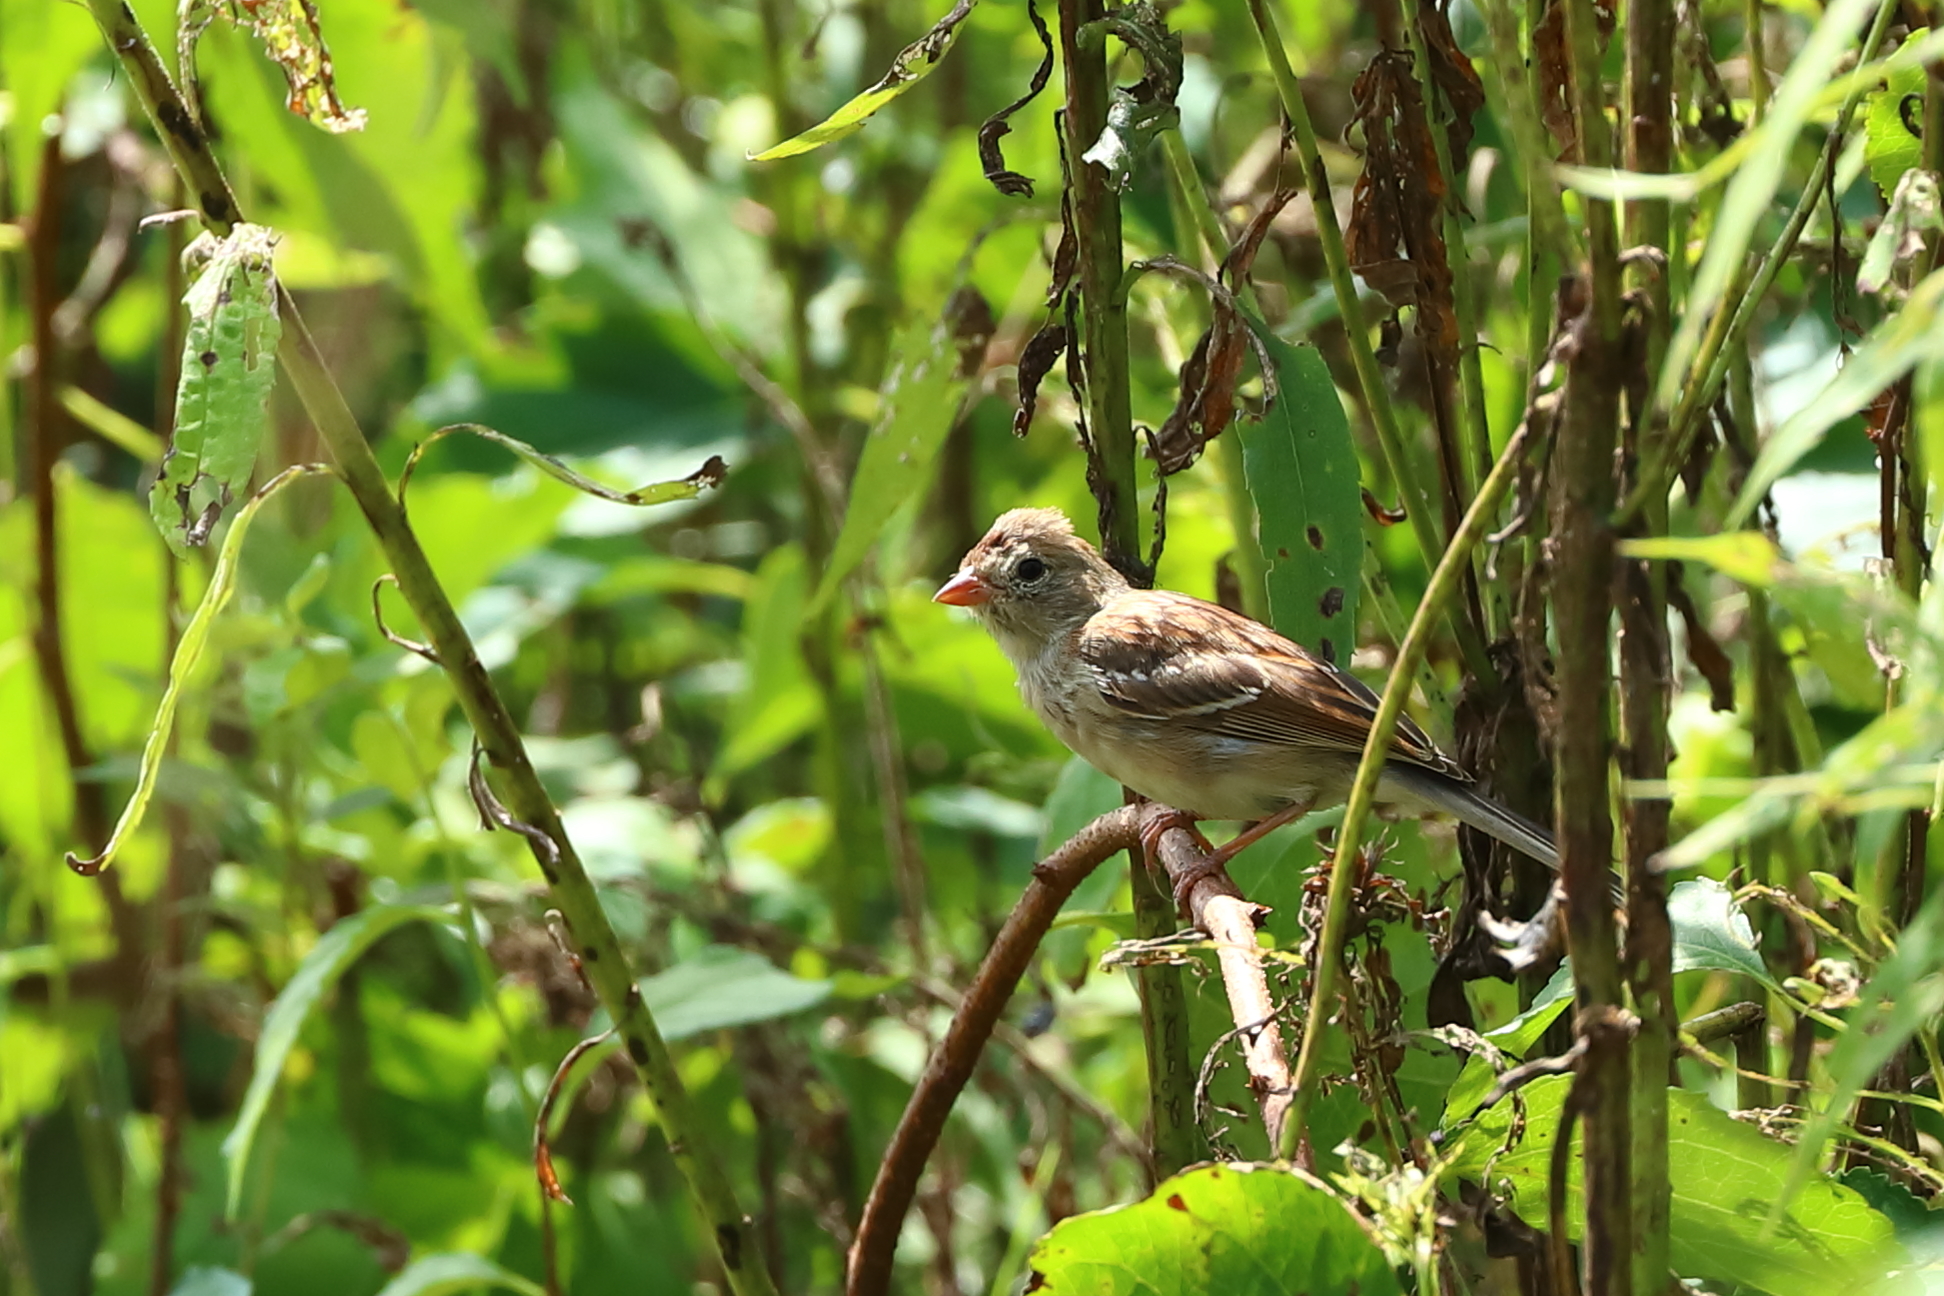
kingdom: Animalia
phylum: Chordata
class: Aves
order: Passeriformes
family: Passerellidae
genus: Spizella
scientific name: Spizella pusilla
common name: Field sparrow
